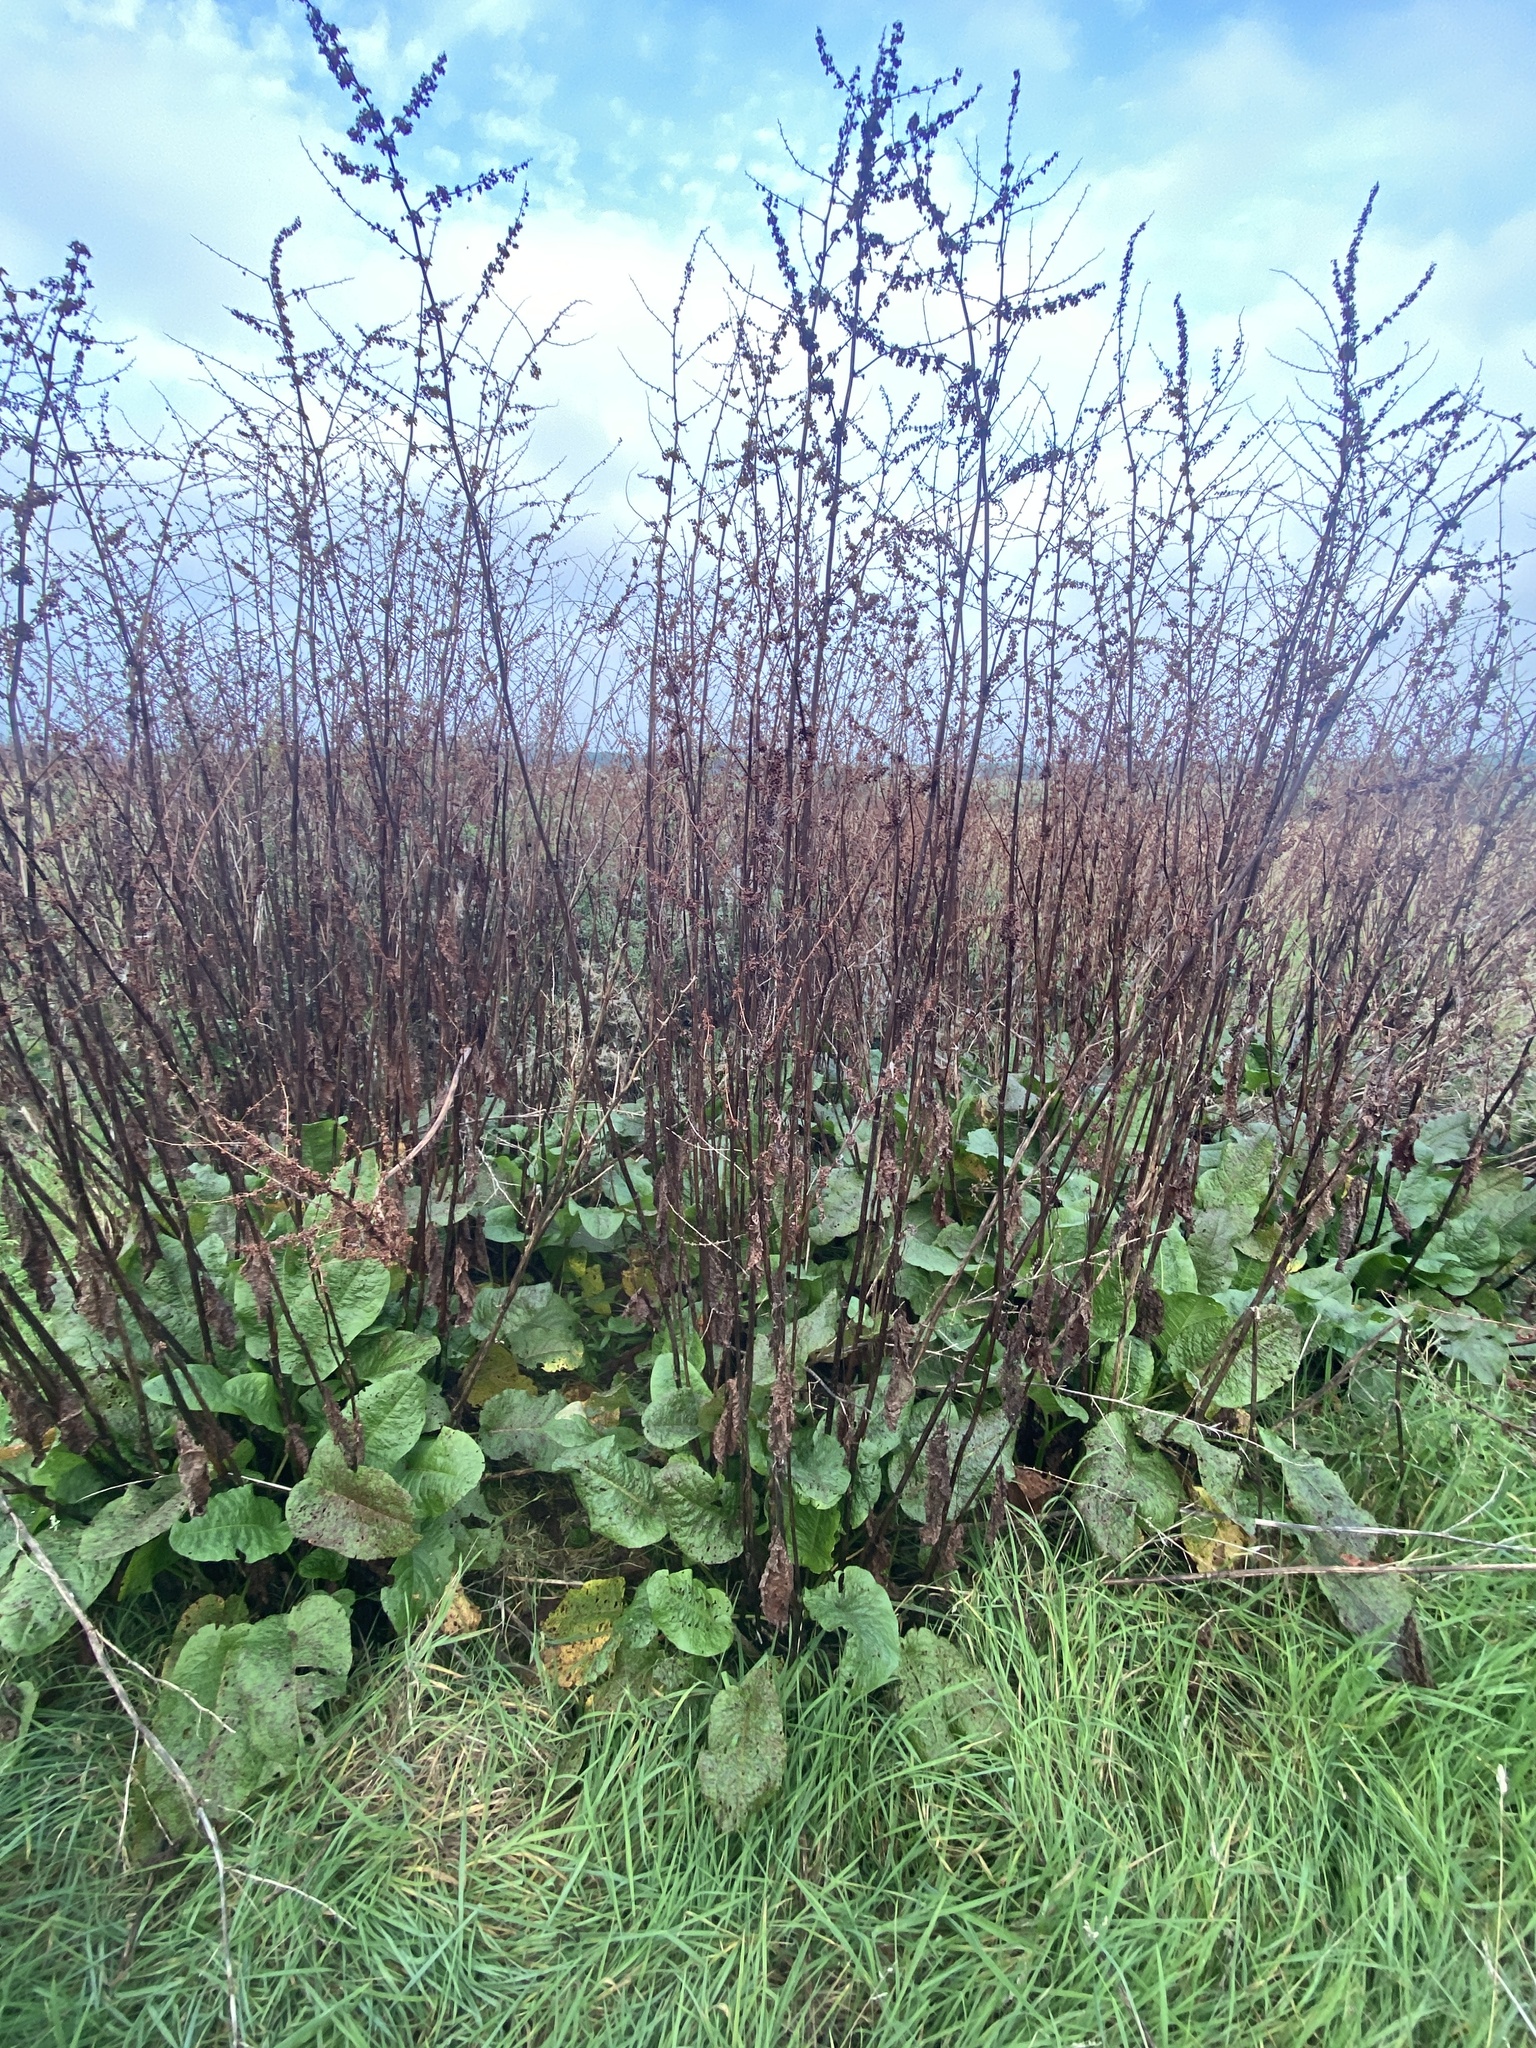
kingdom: Plantae
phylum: Tracheophyta
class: Magnoliopsida
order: Caryophyllales
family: Polygonaceae
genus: Rumex
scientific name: Rumex obtusifolius
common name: Bitter dock
